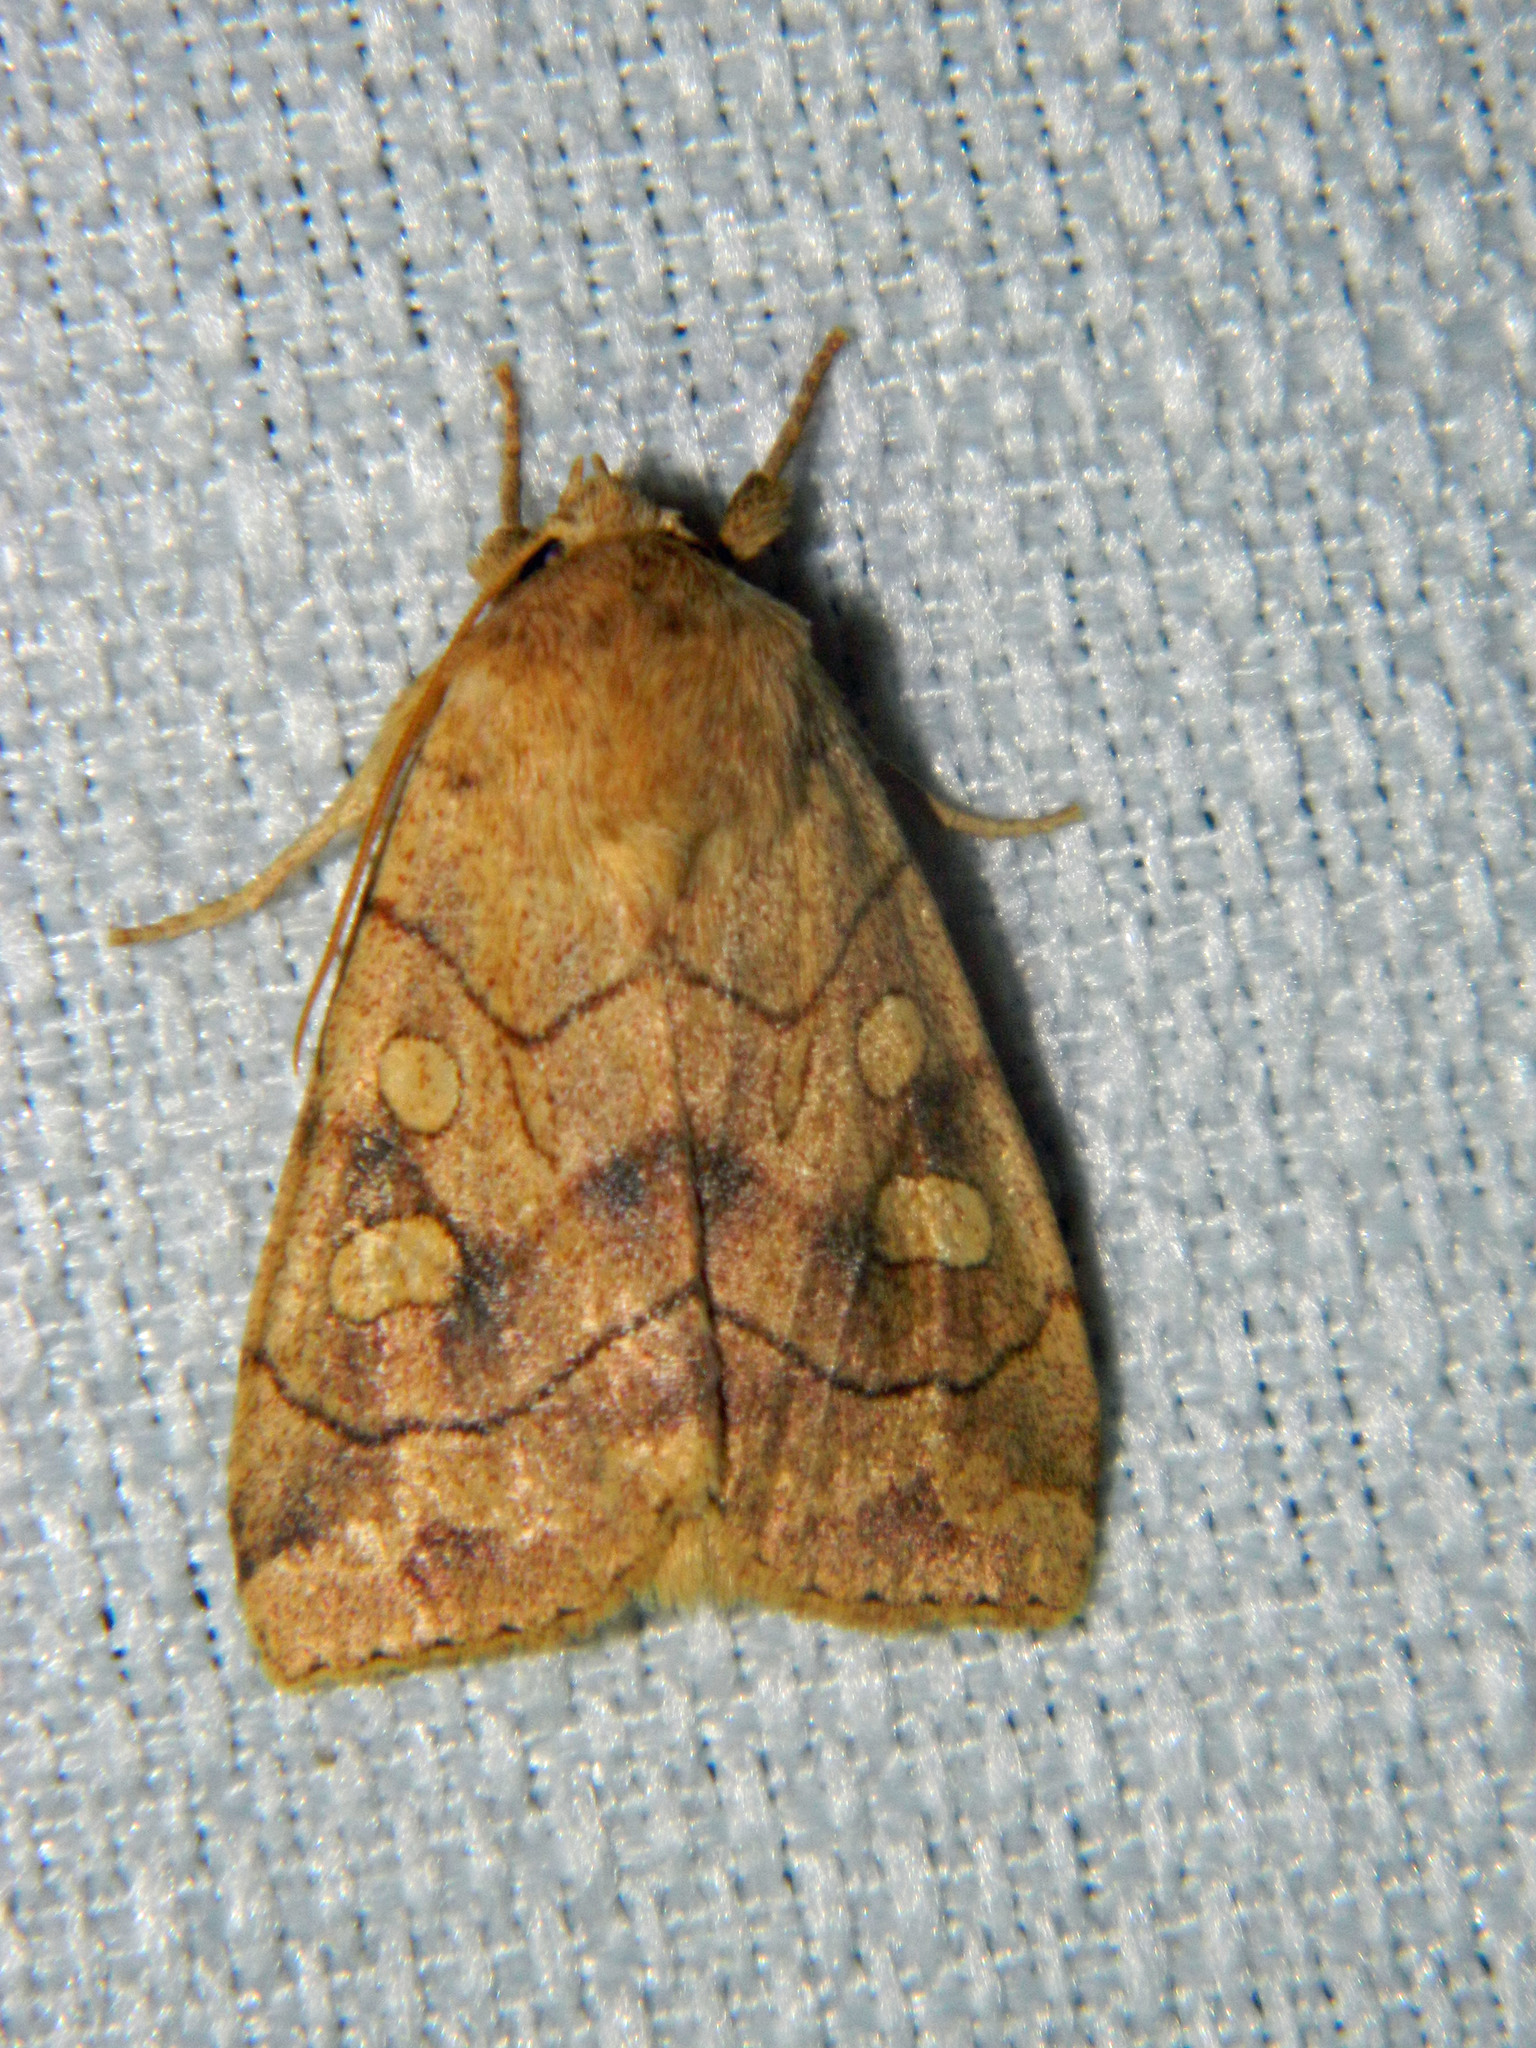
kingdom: Animalia
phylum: Arthropoda
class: Insecta
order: Lepidoptera
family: Noctuidae
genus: Enargia
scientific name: Enargia decolor
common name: Aspen twoleaf tier moth
